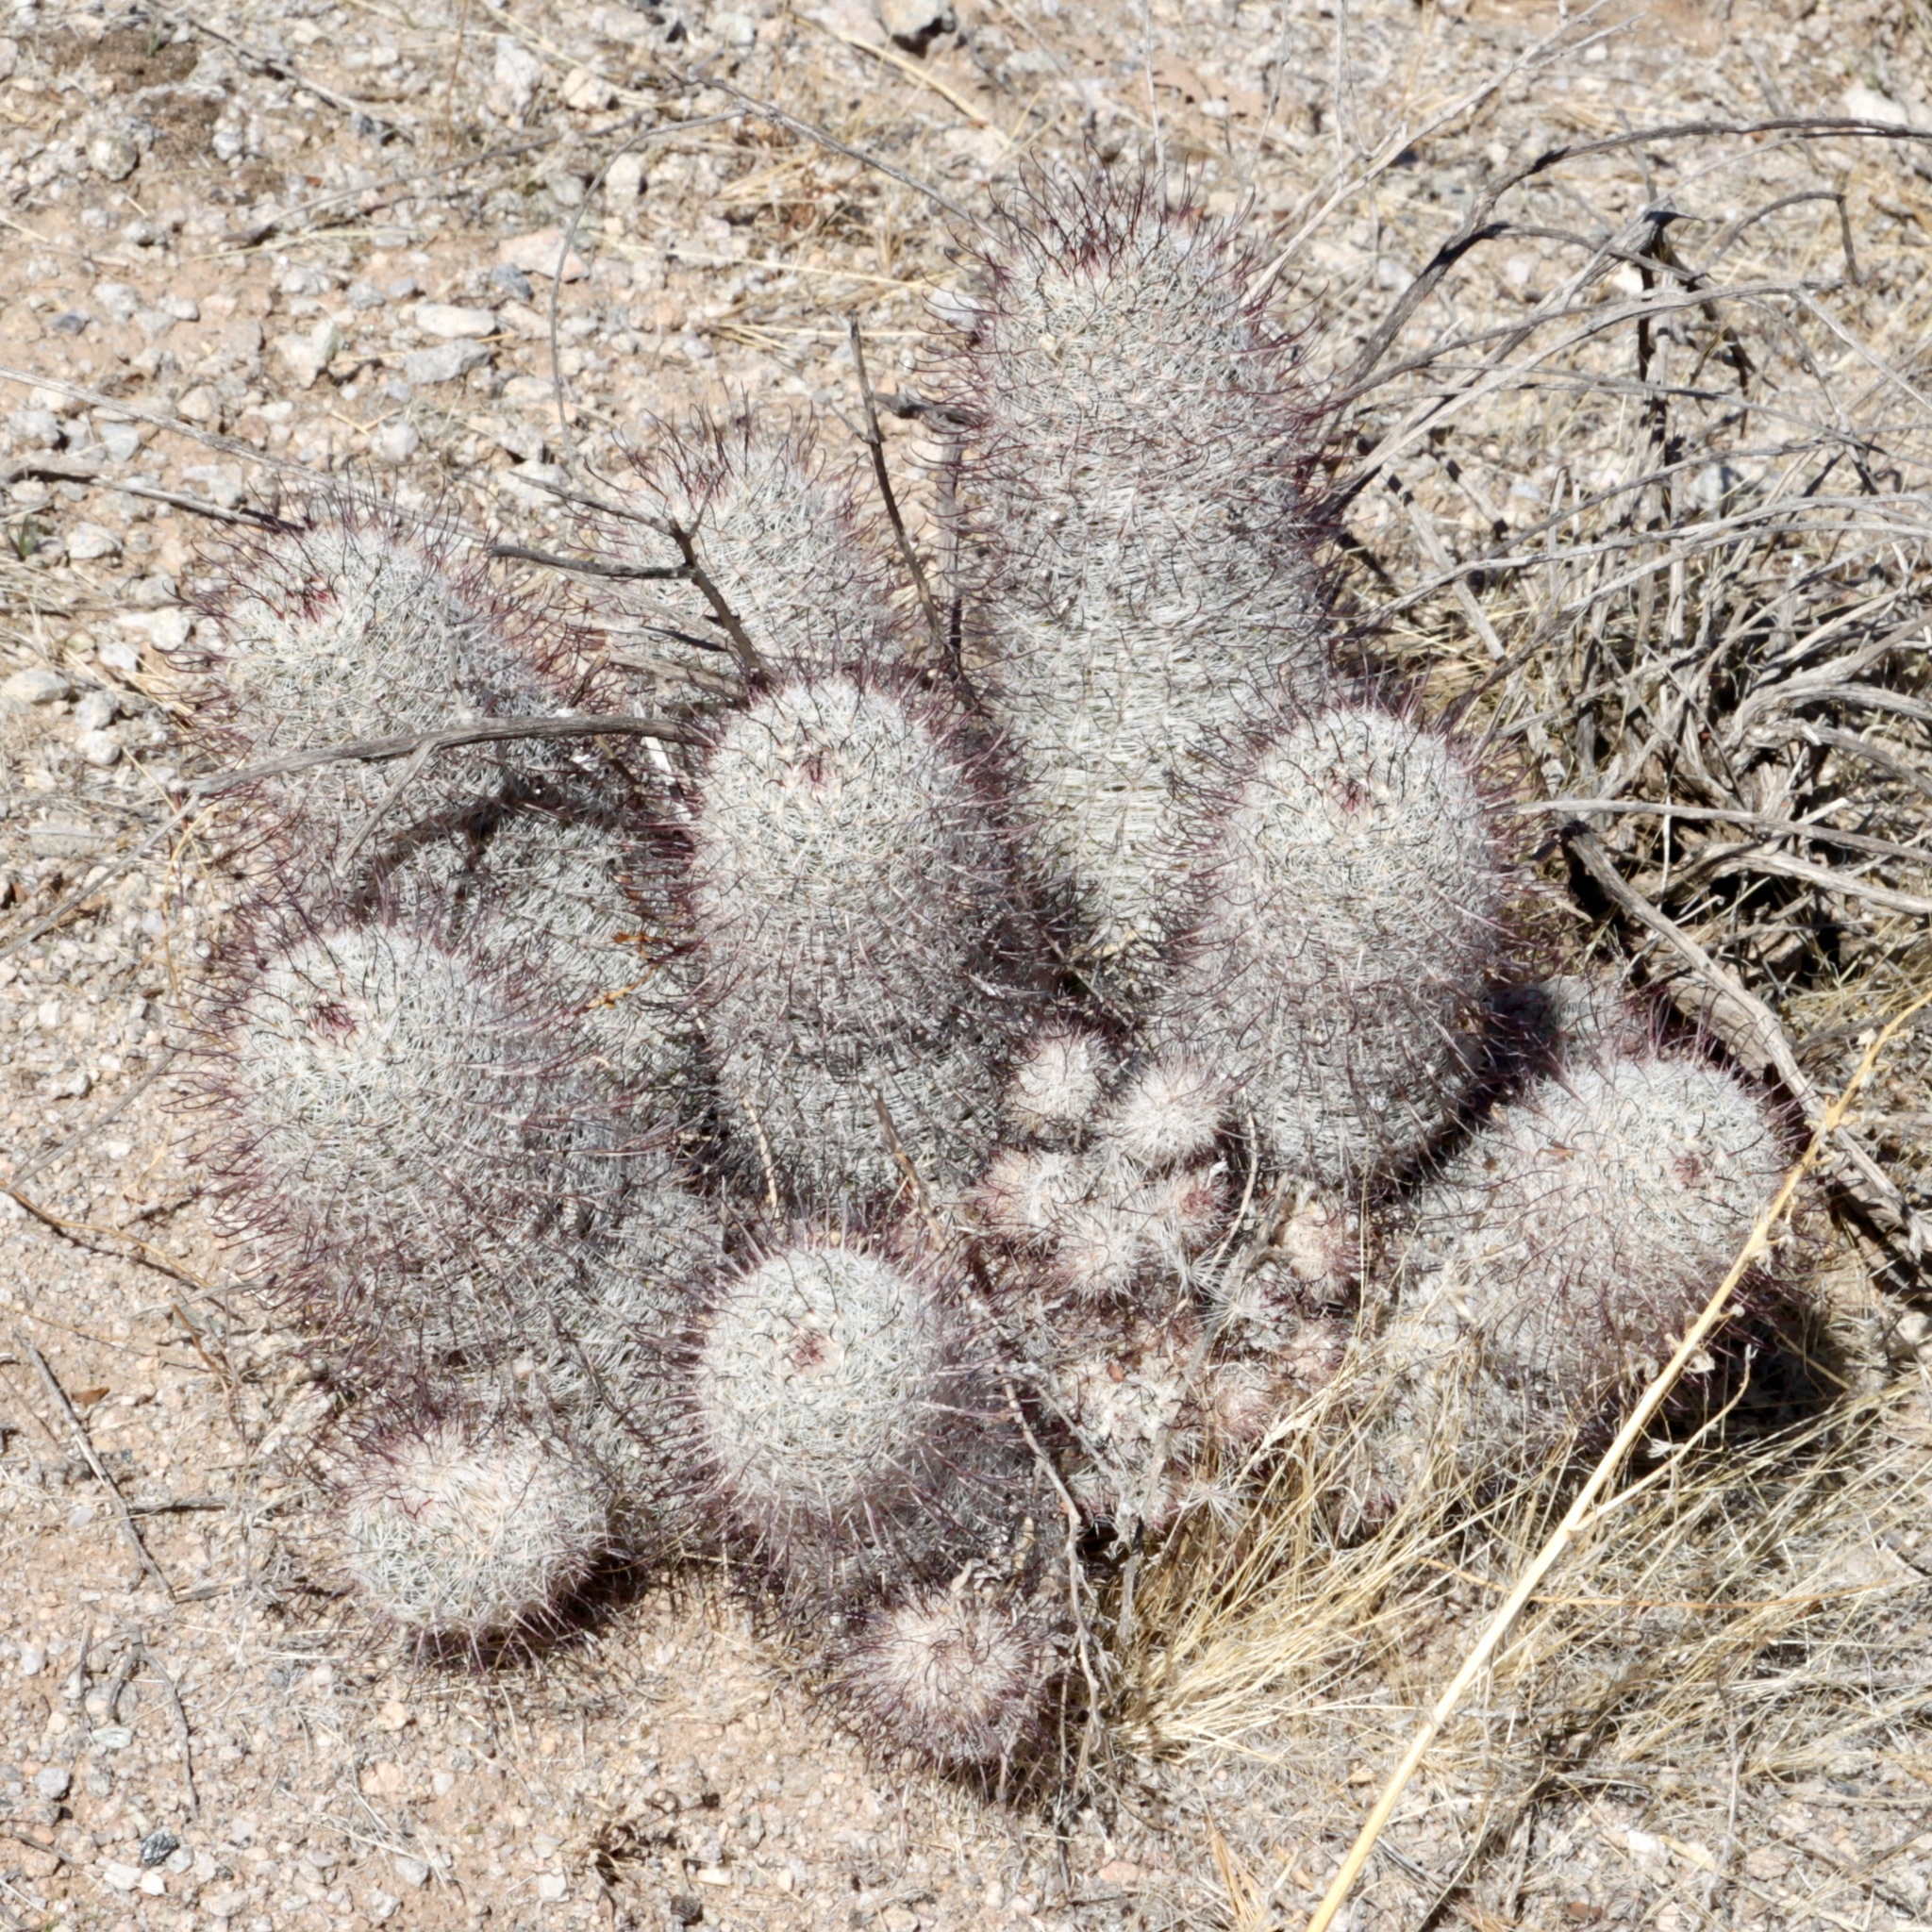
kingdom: Plantae
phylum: Tracheophyta
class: Magnoliopsida
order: Caryophyllales
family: Cactaceae
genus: Cochemiea
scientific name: Cochemiea grahamii
